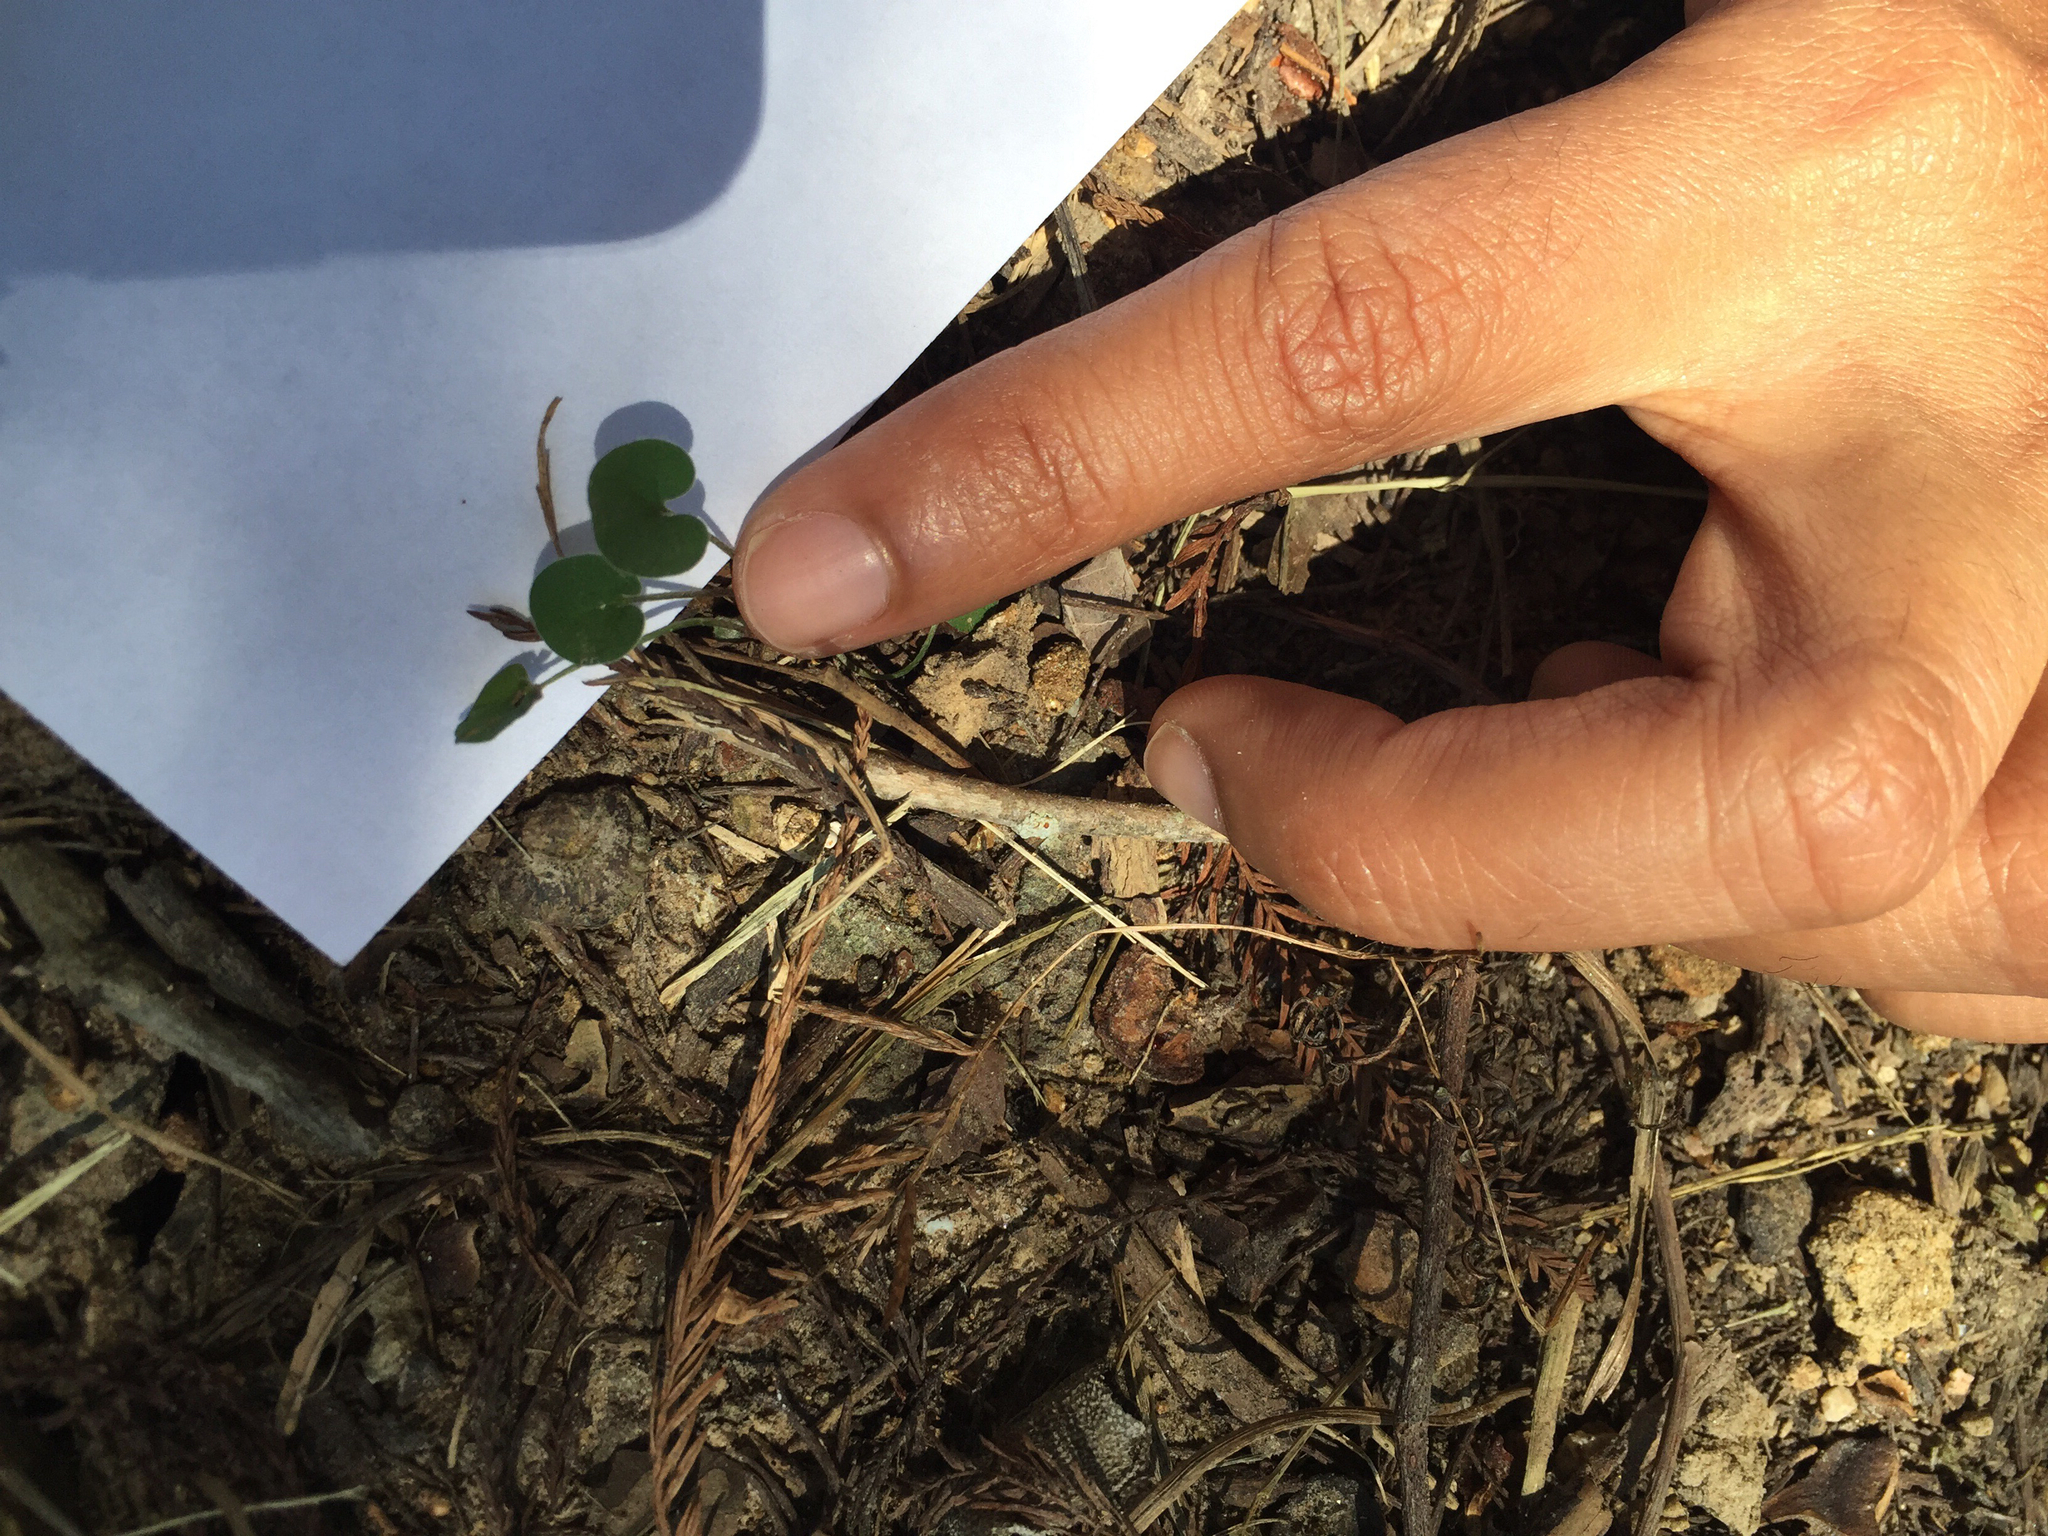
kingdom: Plantae
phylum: Tracheophyta
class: Magnoliopsida
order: Solanales
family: Convolvulaceae
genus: Dichondra
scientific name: Dichondra carolinensis
